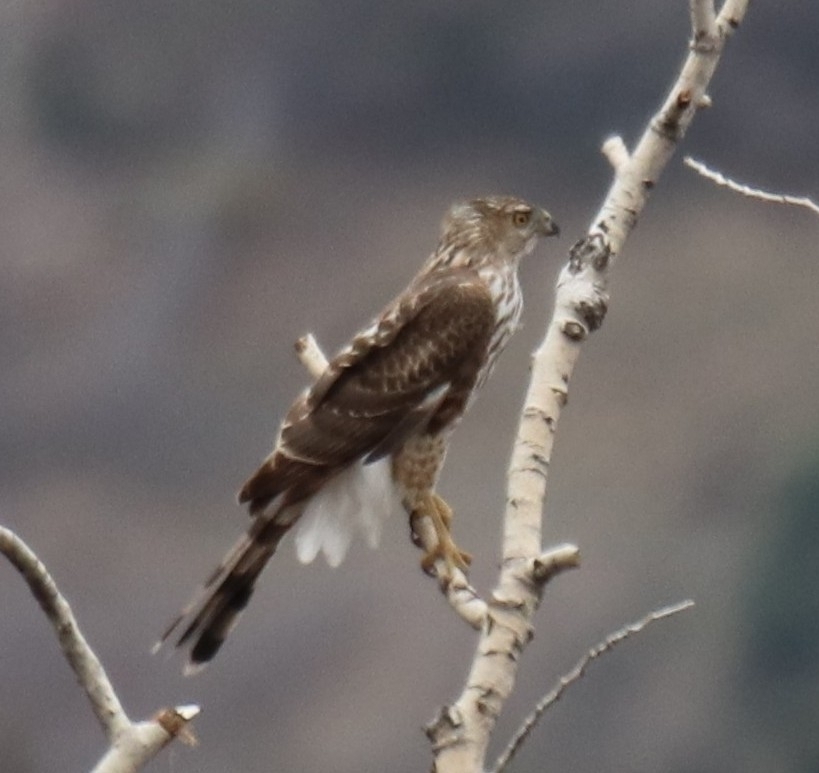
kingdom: Animalia
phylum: Chordata
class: Aves
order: Accipitriformes
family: Accipitridae
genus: Accipiter
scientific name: Accipiter cooperii
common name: Cooper's hawk
